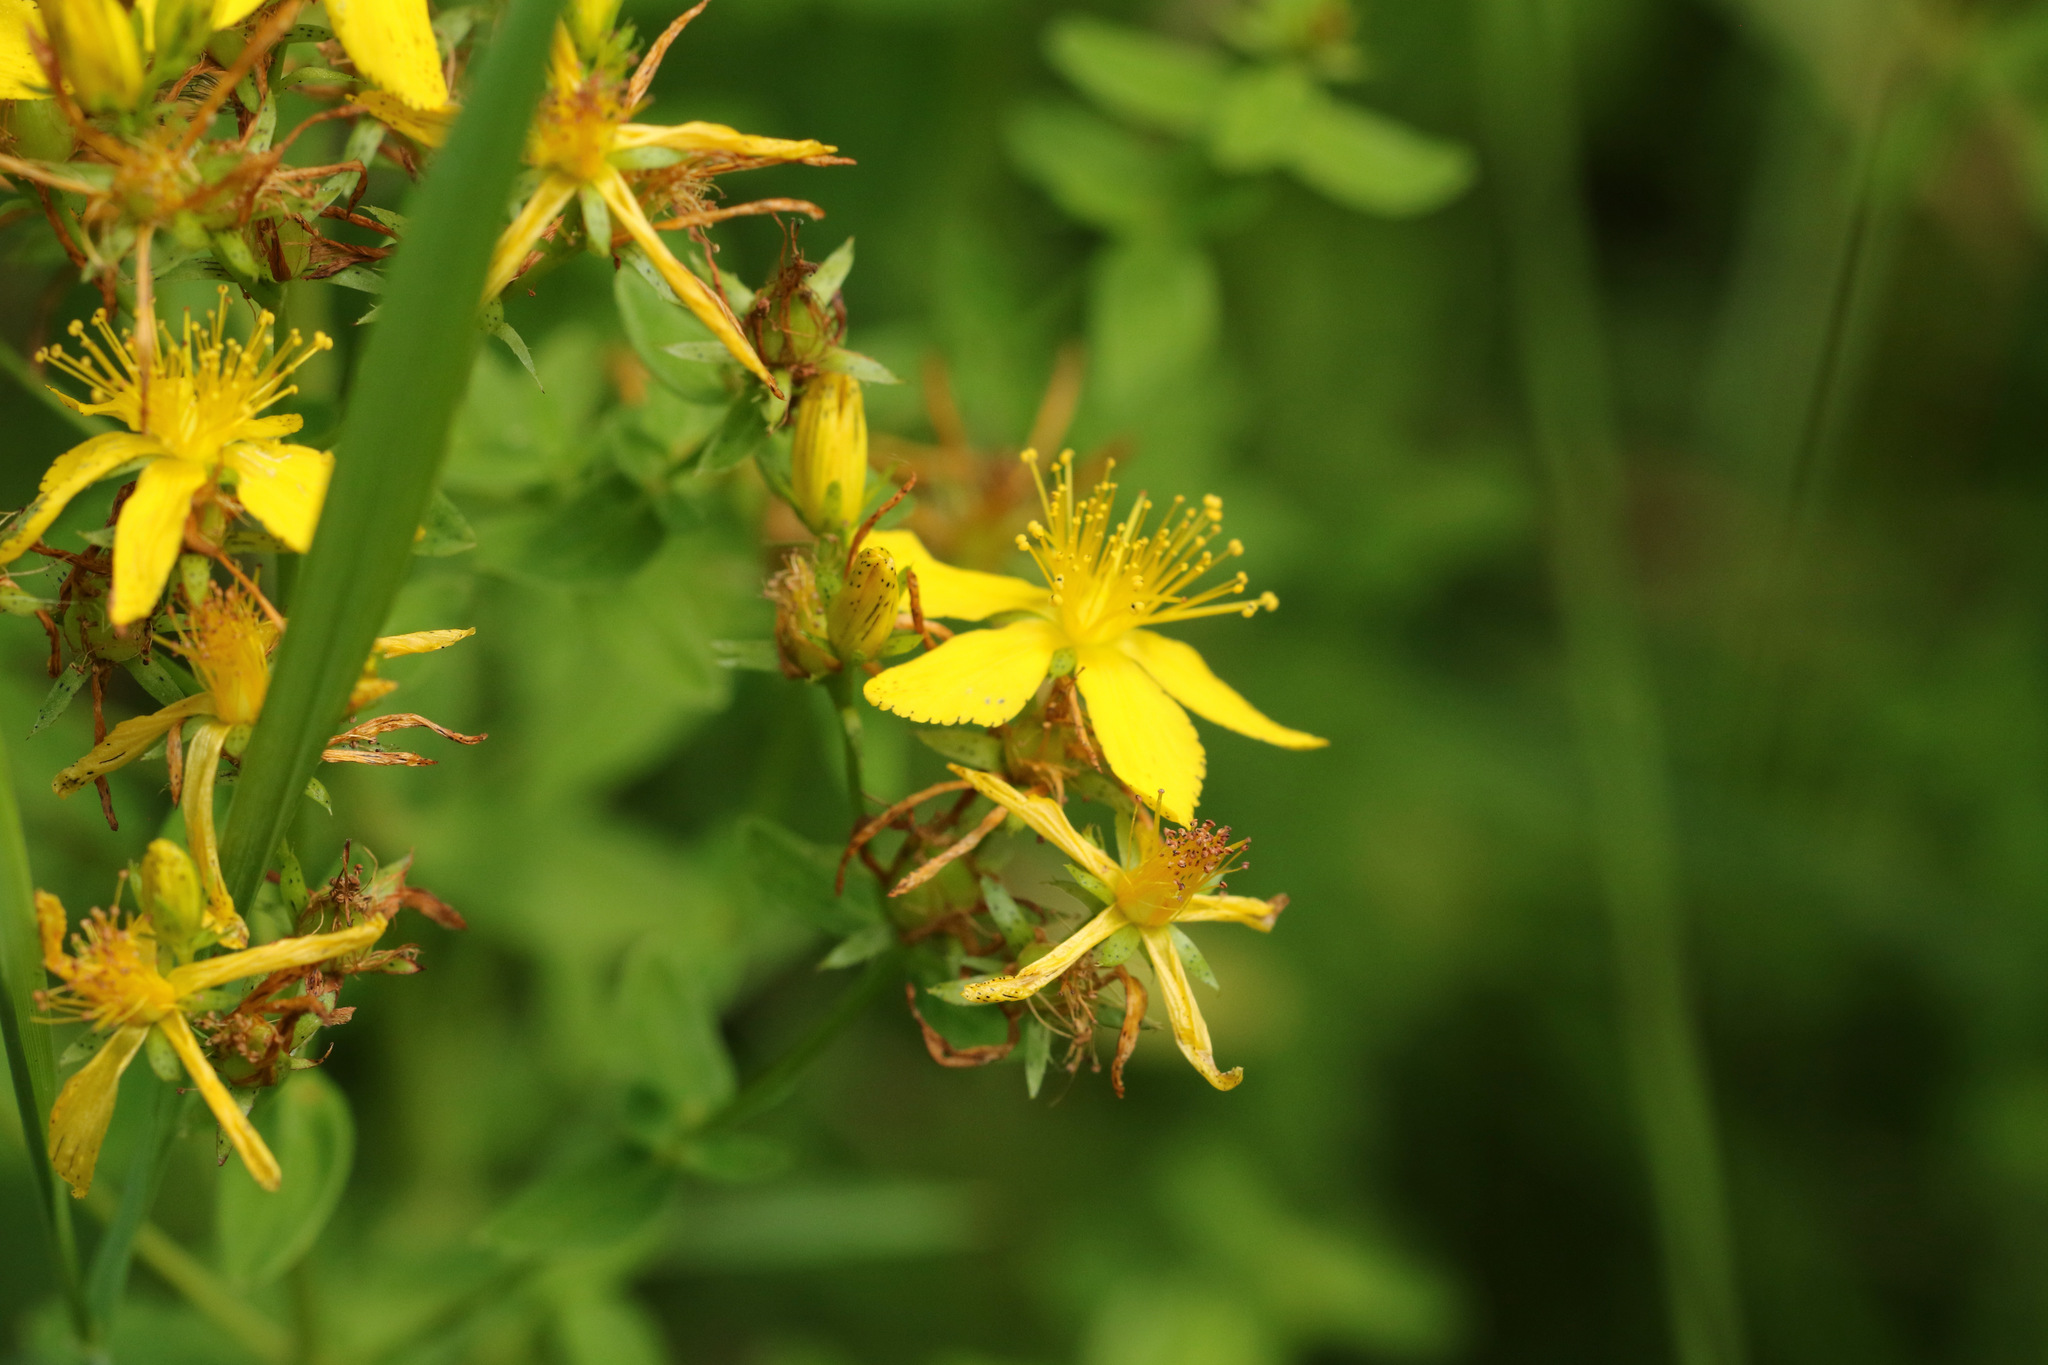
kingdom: Plantae
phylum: Tracheophyta
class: Magnoliopsida
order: Malpighiales
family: Hypericaceae
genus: Hypericum
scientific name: Hypericum perforatum
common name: Common st. johnswort
